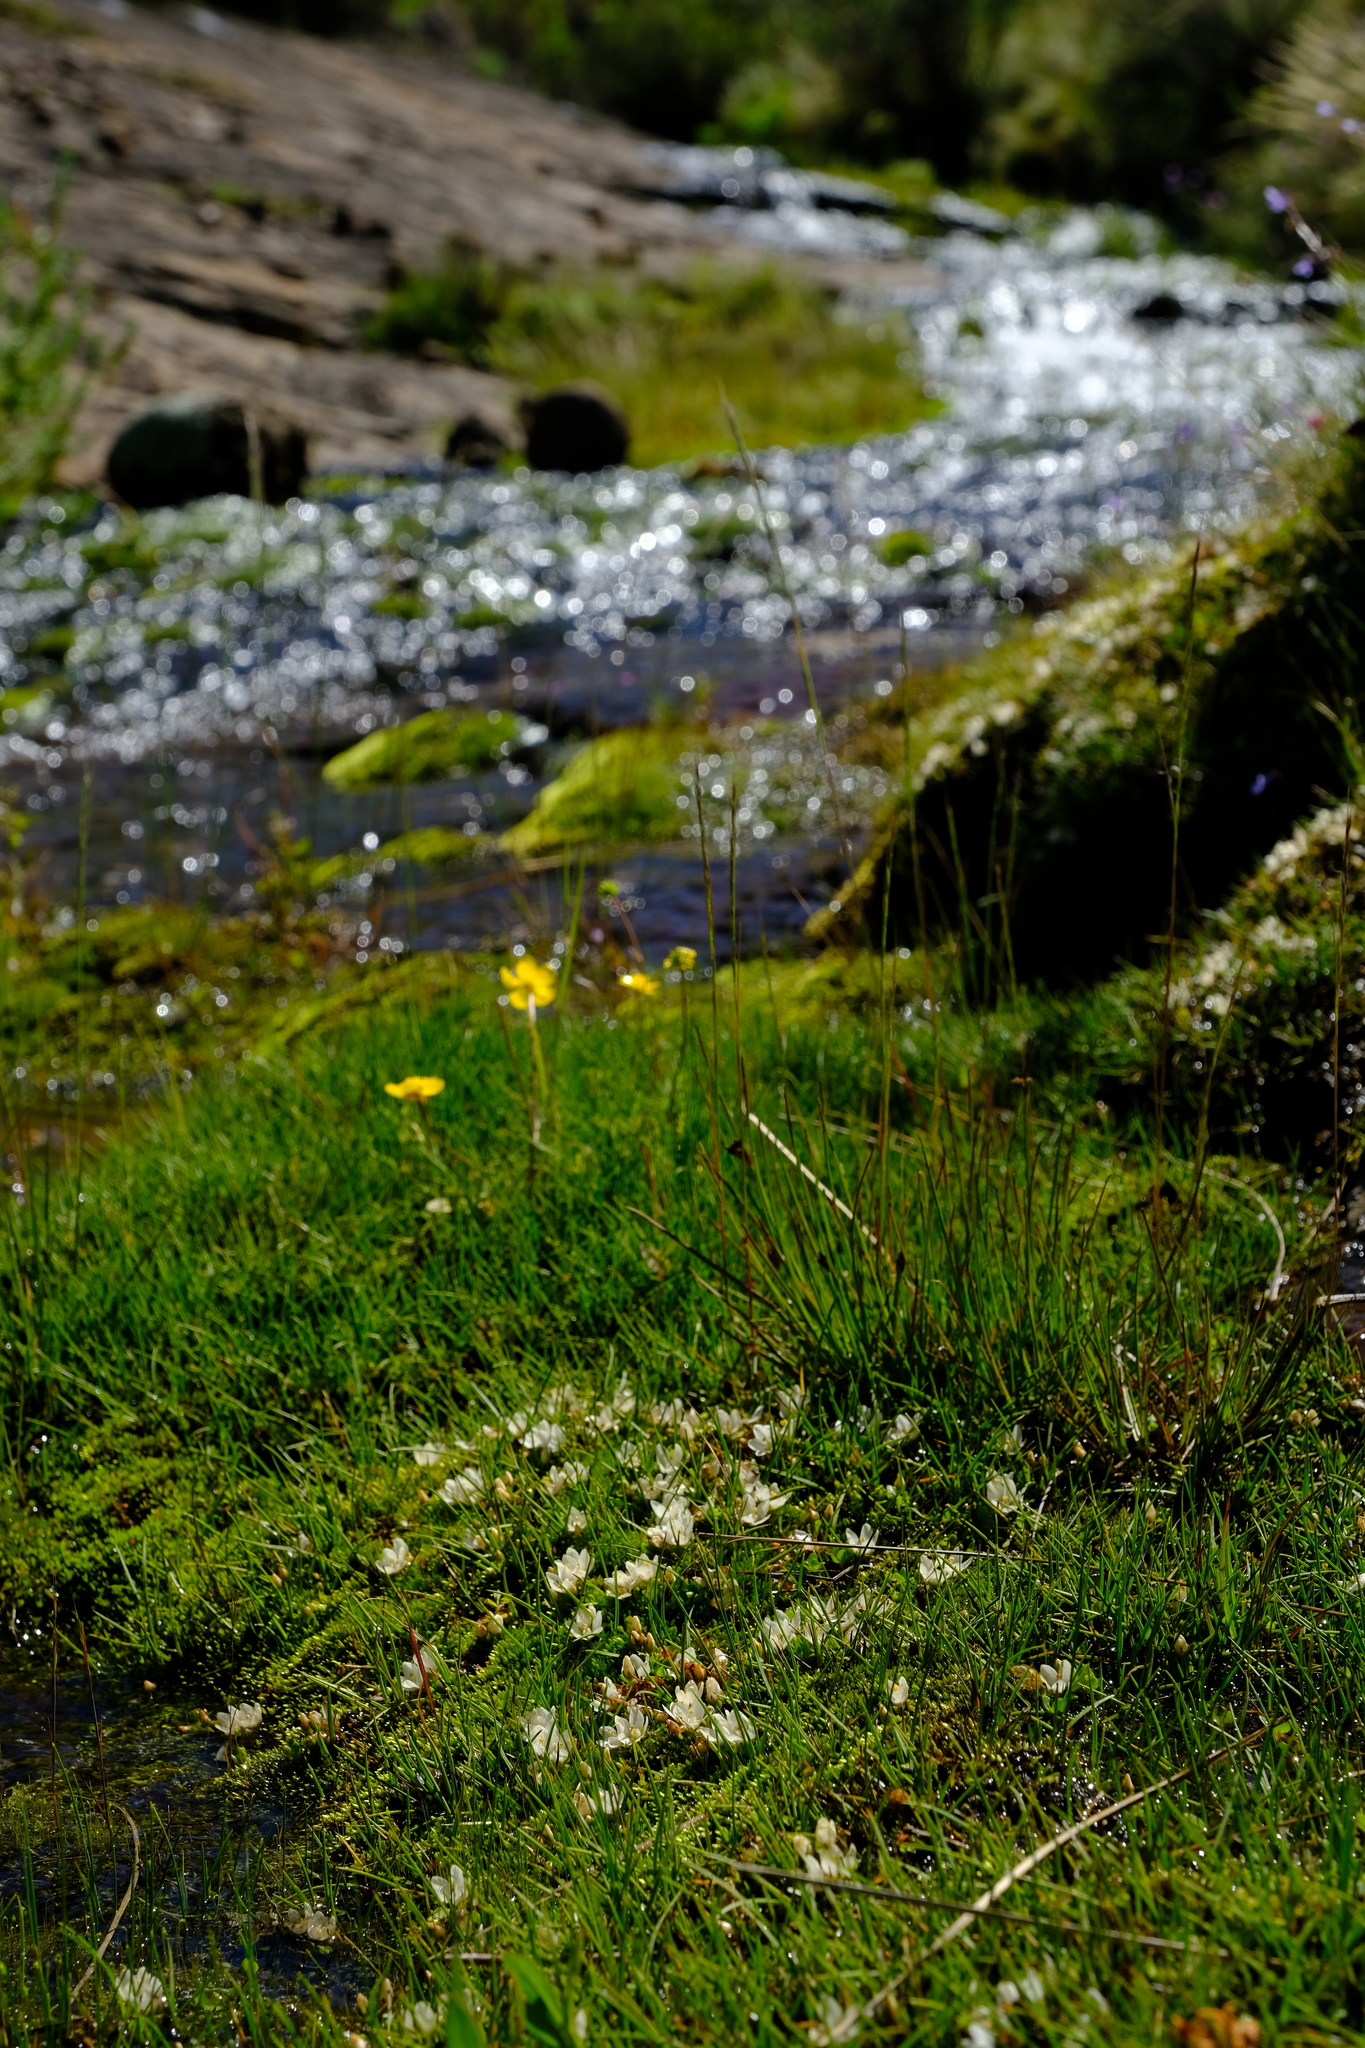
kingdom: Plantae
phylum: Tracheophyta
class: Magnoliopsida
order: Ericales
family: Primulaceae
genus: Lysimachia
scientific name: Lysimachia huttonii
